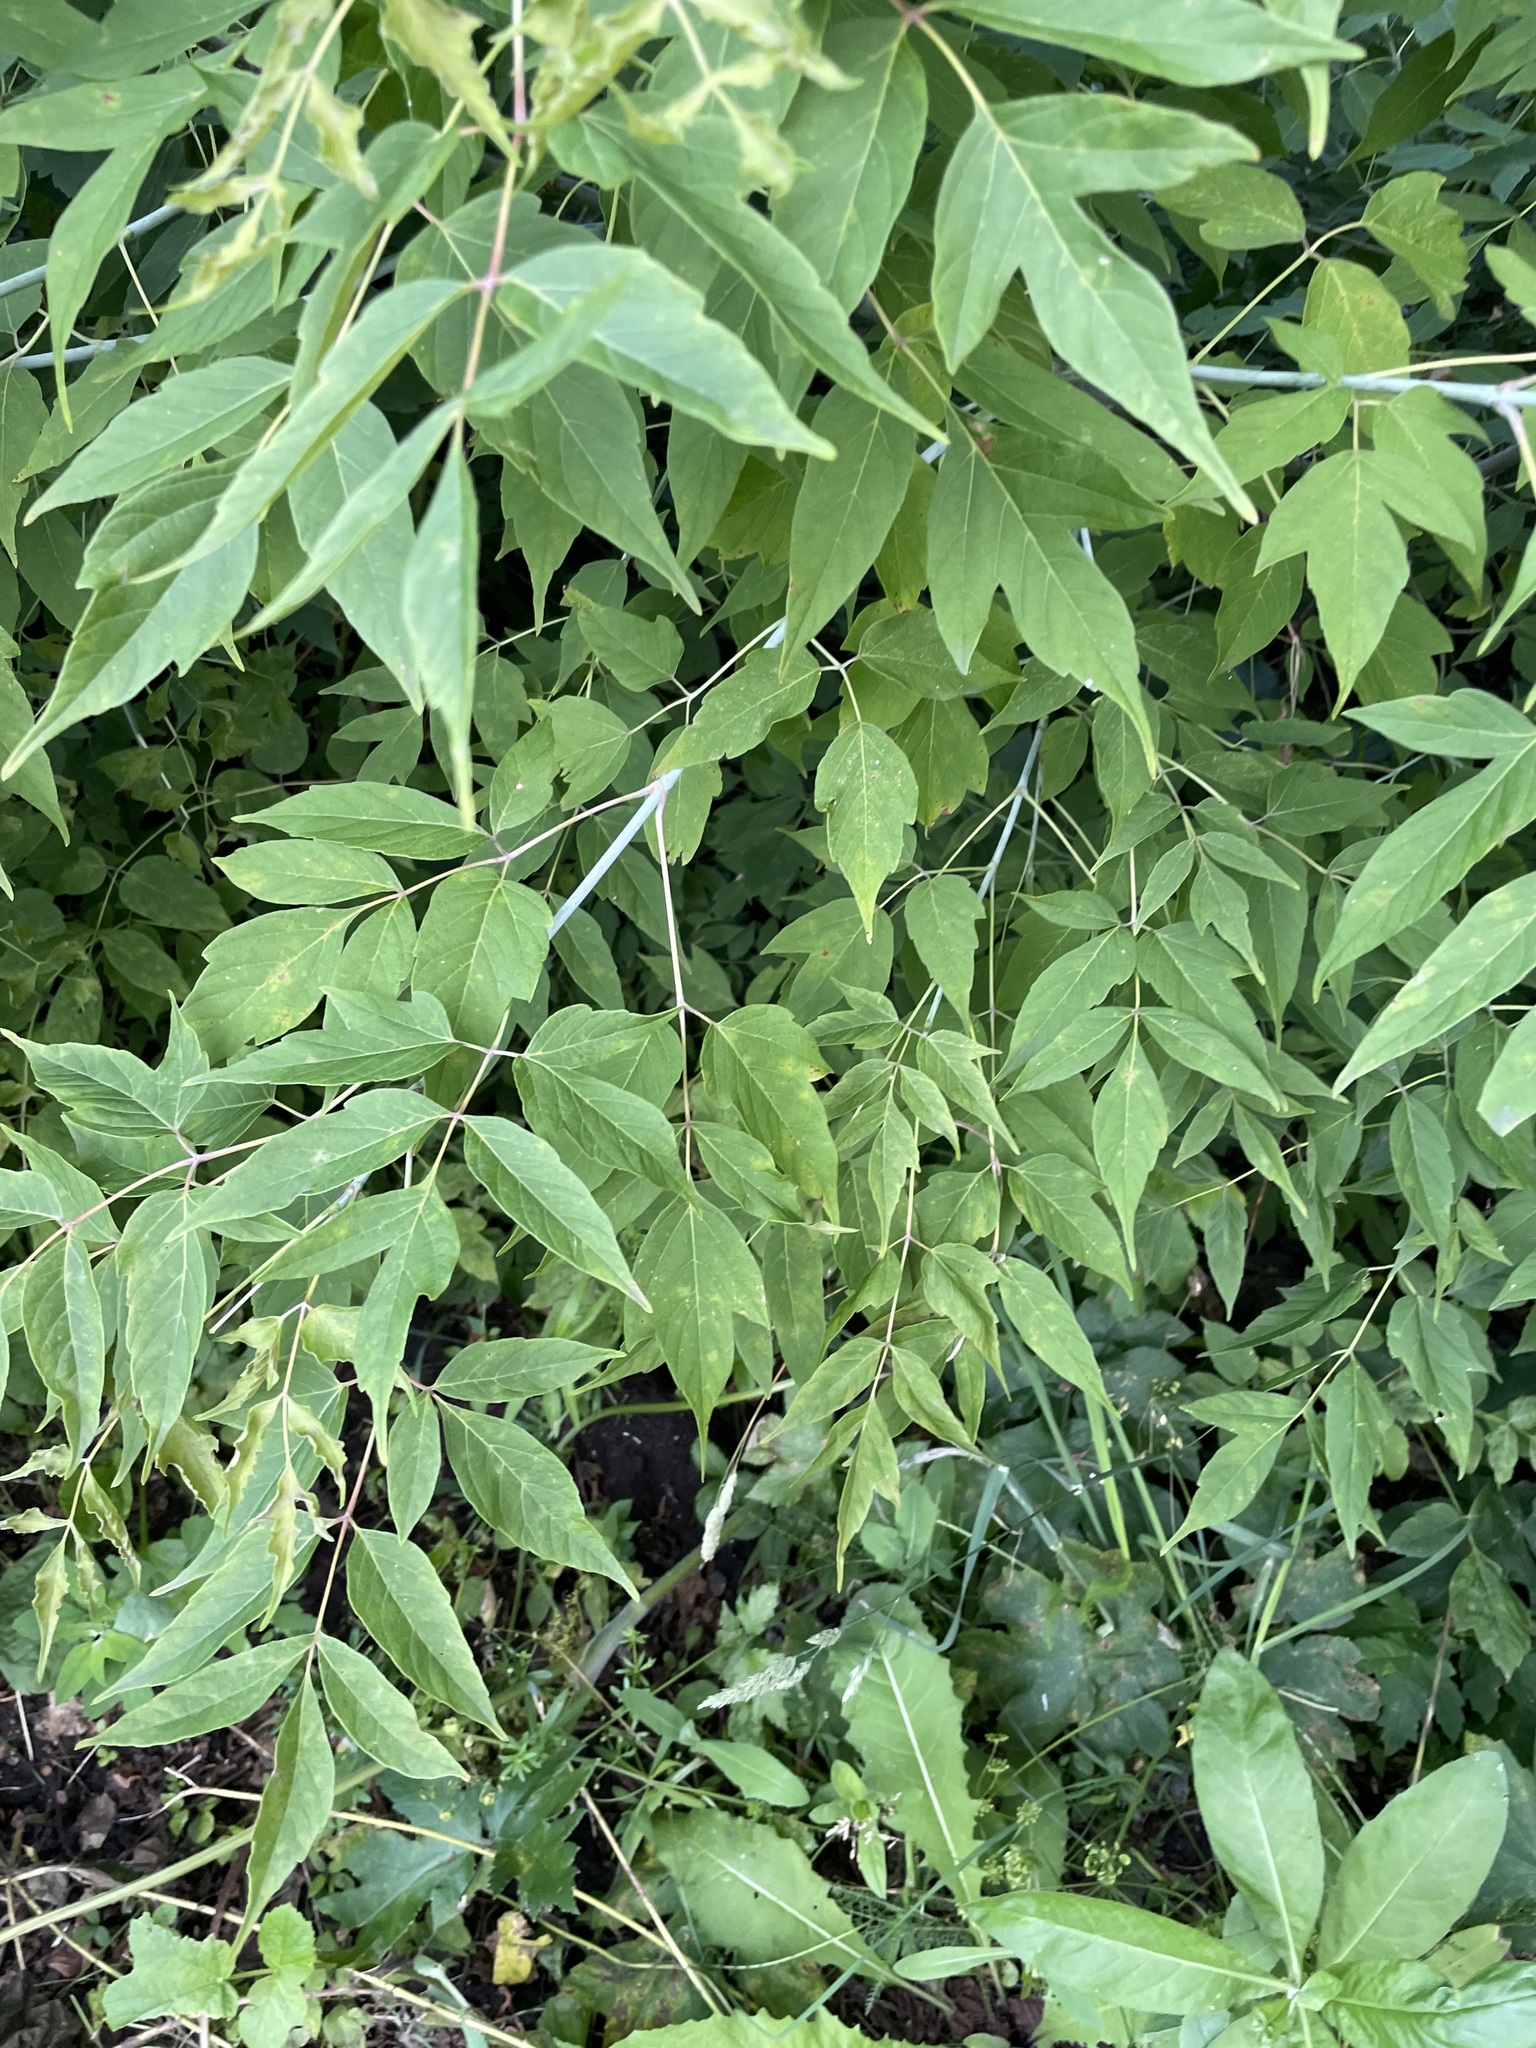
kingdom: Plantae
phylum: Tracheophyta
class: Magnoliopsida
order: Sapindales
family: Sapindaceae
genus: Acer
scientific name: Acer negundo
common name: Ashleaf maple
